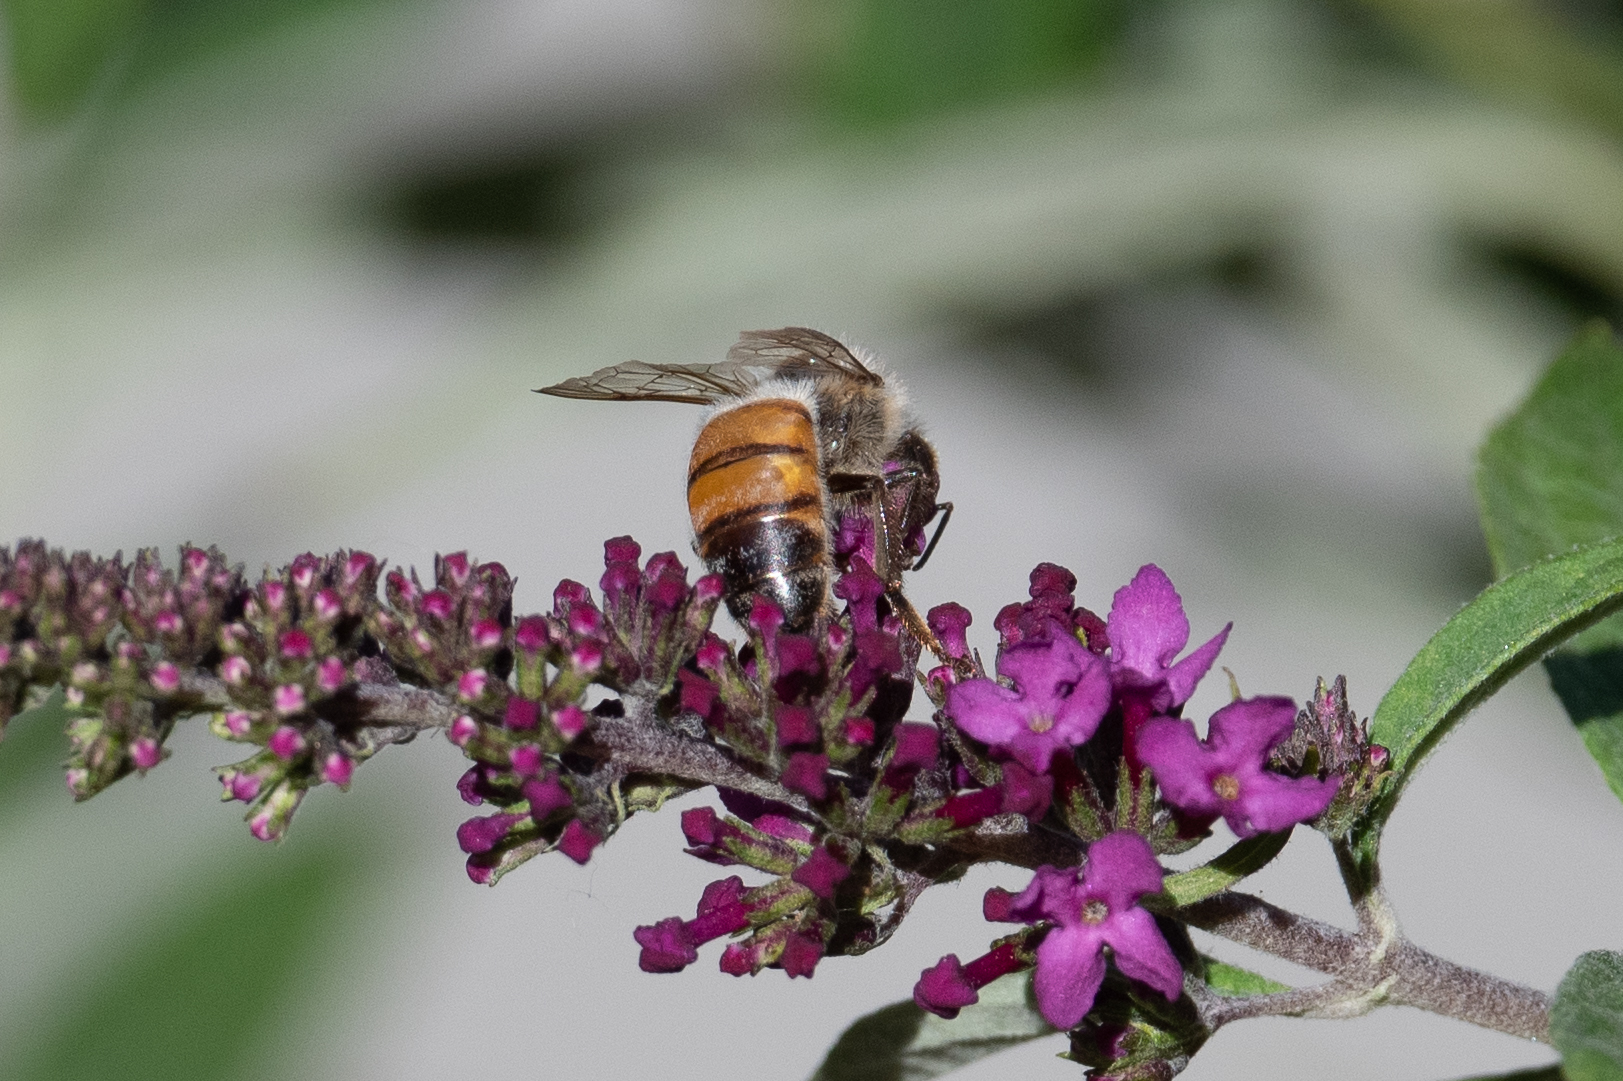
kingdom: Animalia
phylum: Arthropoda
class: Insecta
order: Hymenoptera
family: Apidae
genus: Apis
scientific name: Apis mellifera
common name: Honey bee
